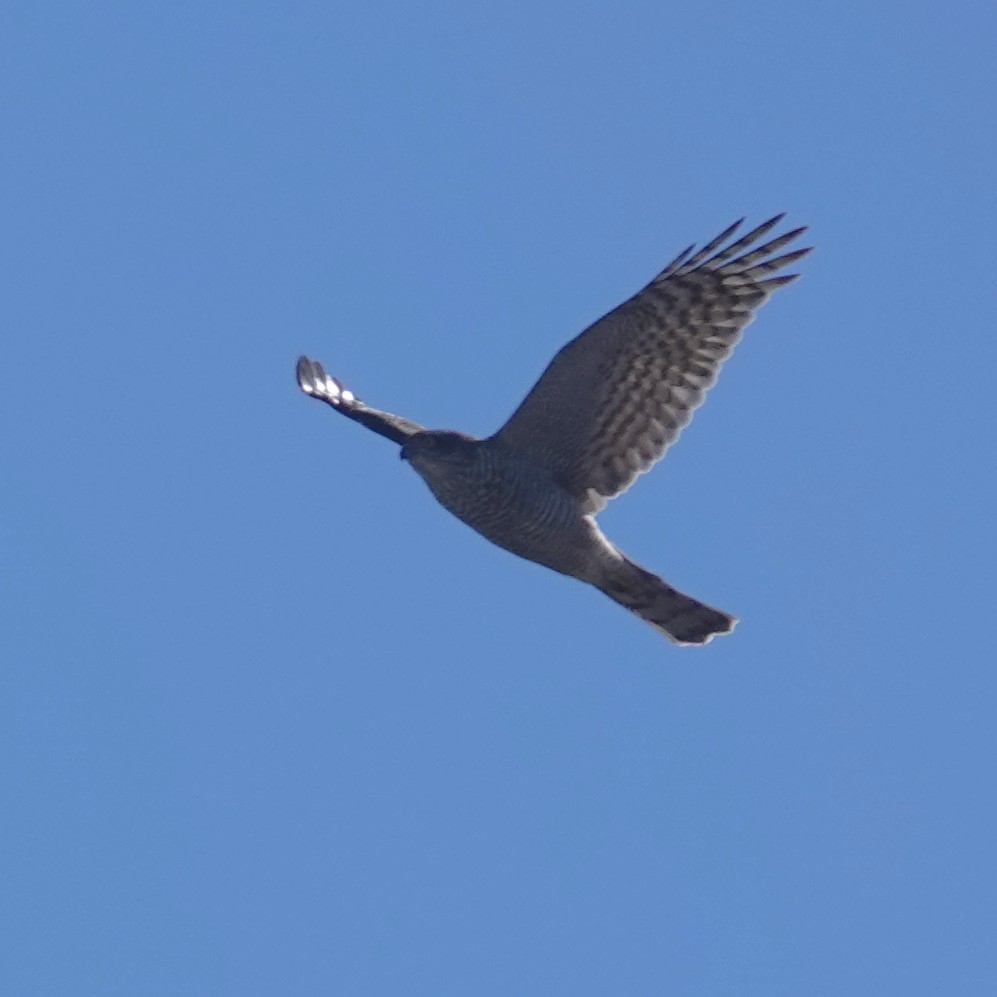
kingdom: Animalia
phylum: Chordata
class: Aves
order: Accipitriformes
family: Accipitridae
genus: Accipiter
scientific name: Accipiter nisus
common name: Eurasian sparrowhawk
